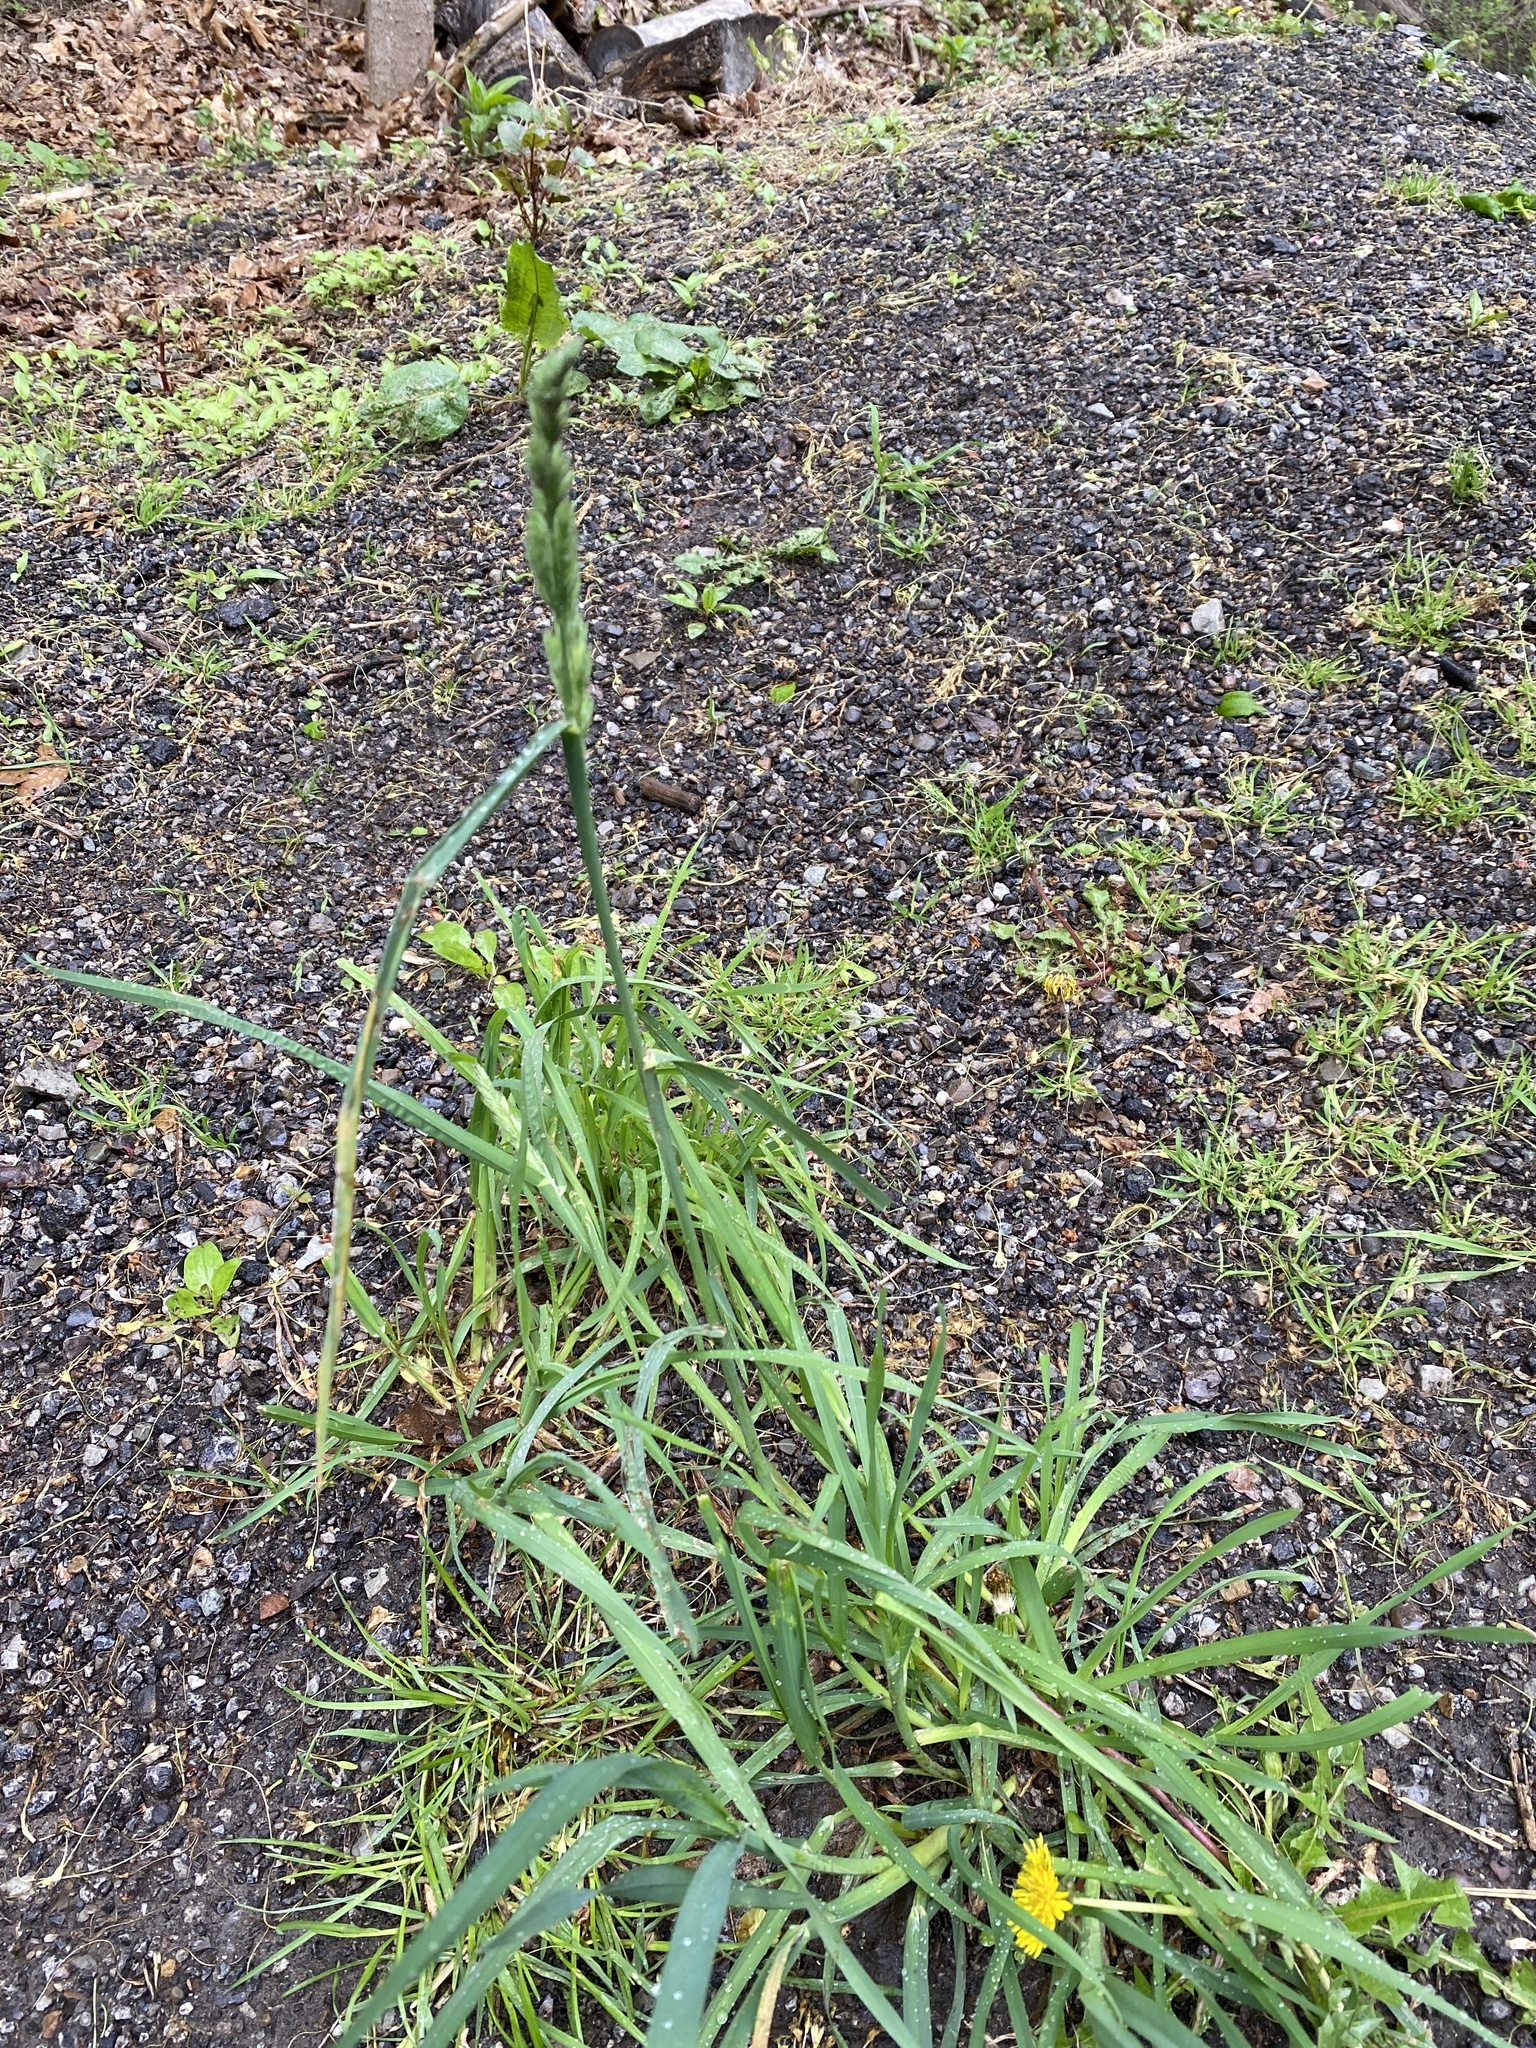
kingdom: Plantae
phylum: Tracheophyta
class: Liliopsida
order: Poales
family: Poaceae
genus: Dactylis
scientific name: Dactylis glomerata
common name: Orchardgrass
